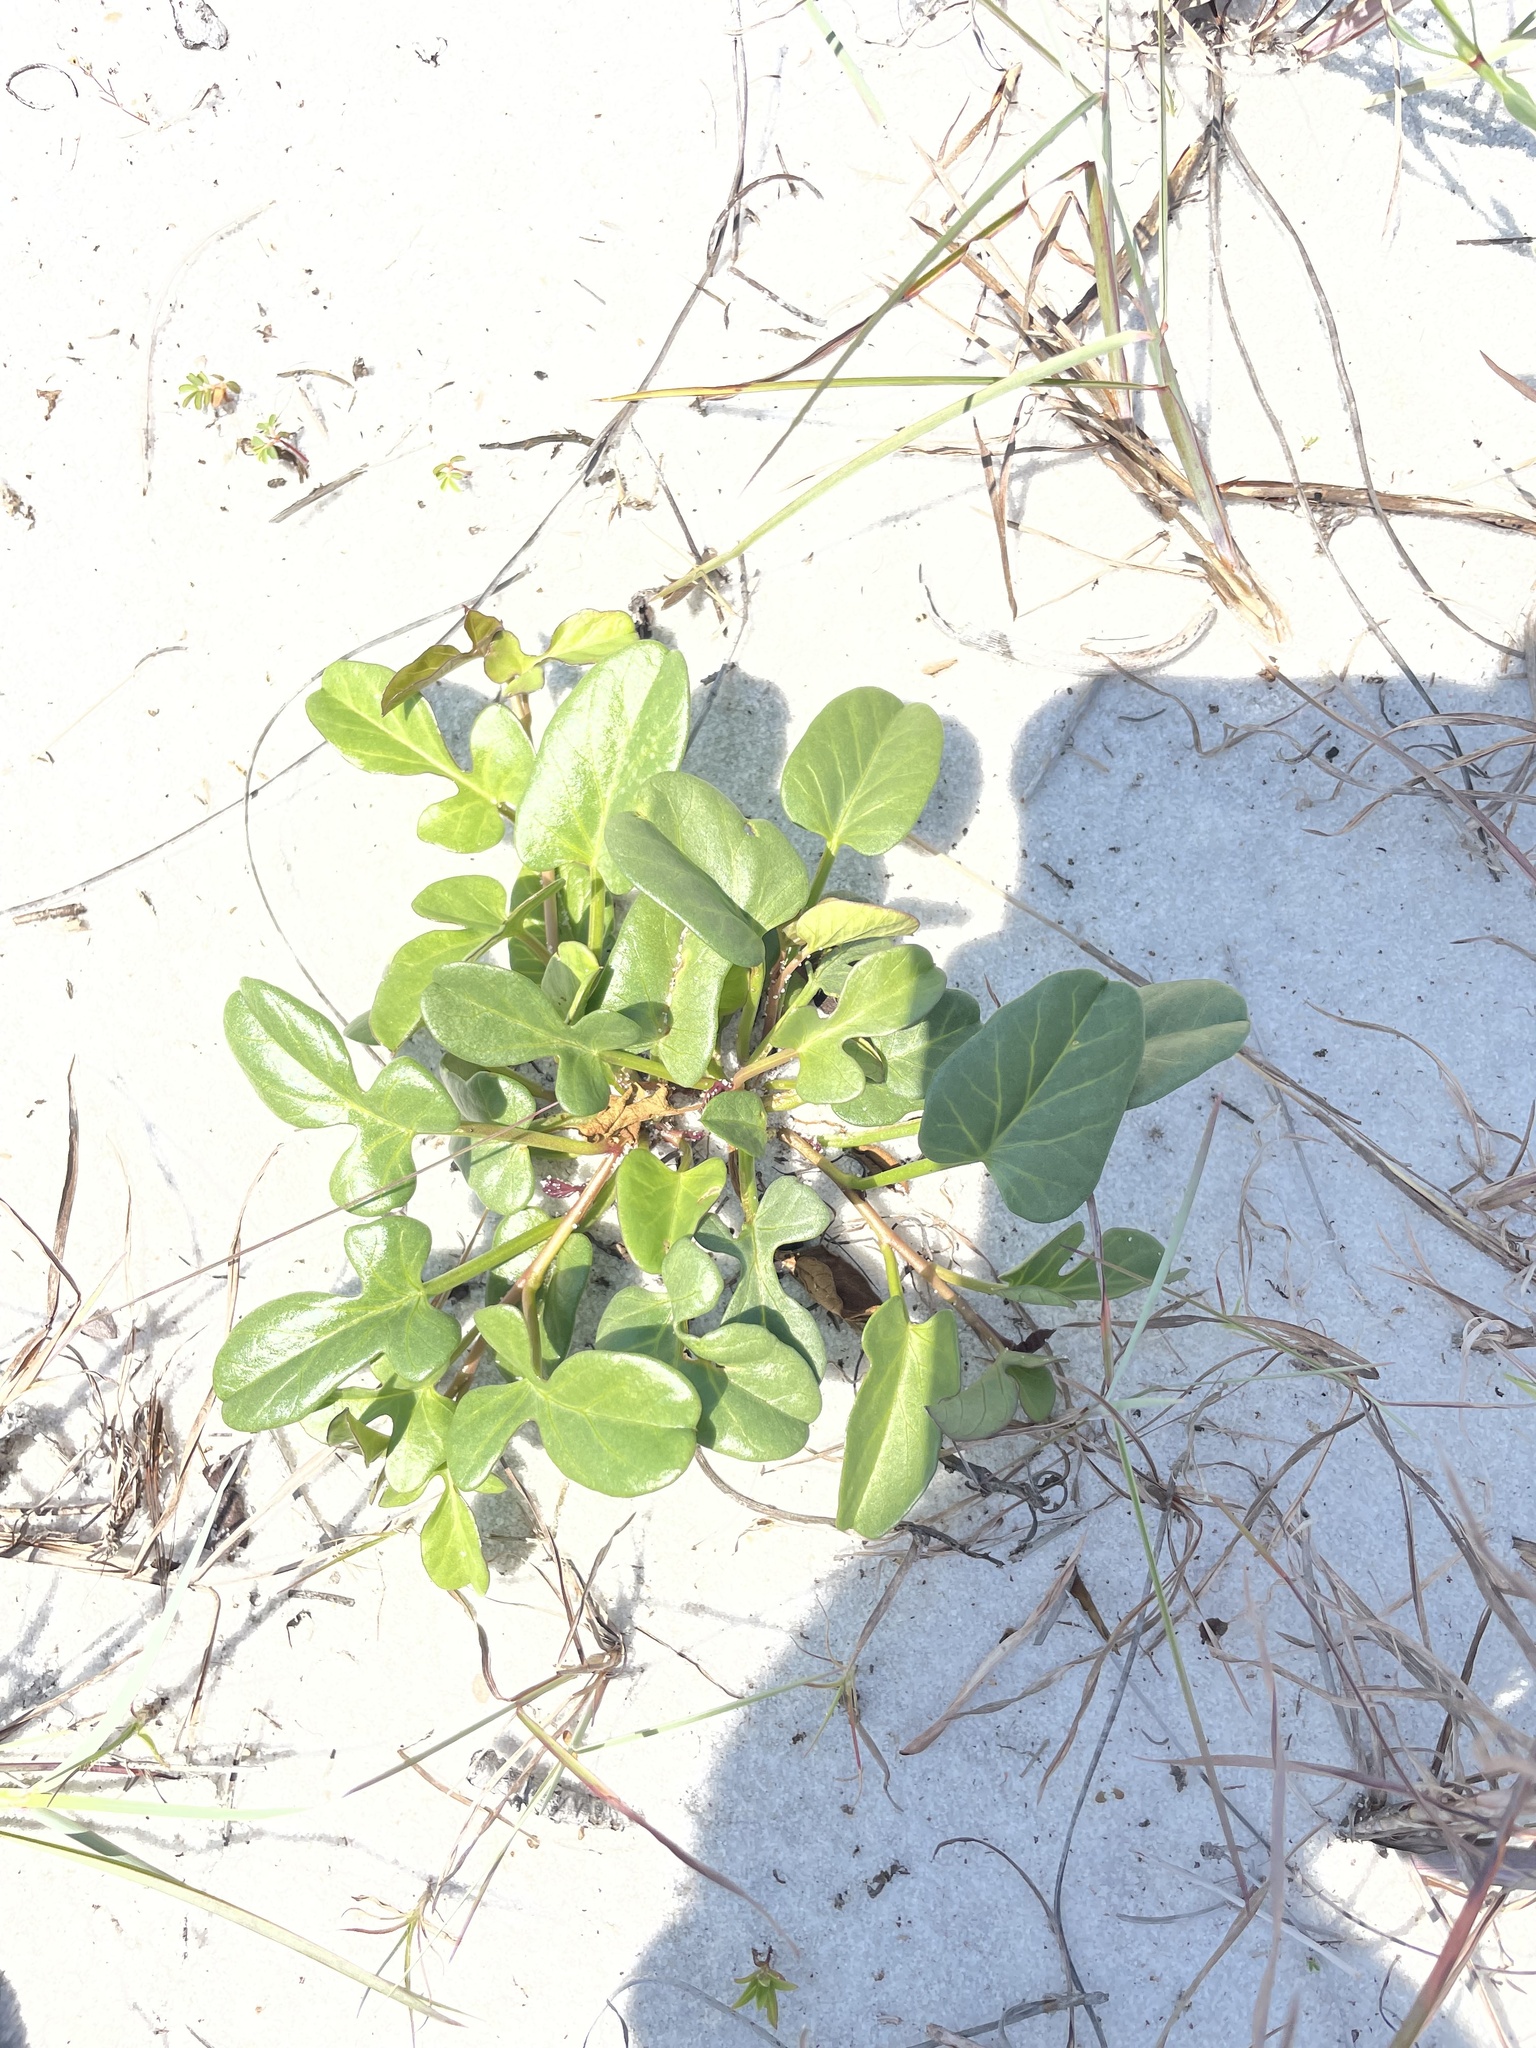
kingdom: Plantae
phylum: Tracheophyta
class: Magnoliopsida
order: Solanales
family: Convolvulaceae
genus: Ipomoea
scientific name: Ipomoea imperati
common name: Fiddle-leaf morning-glory
